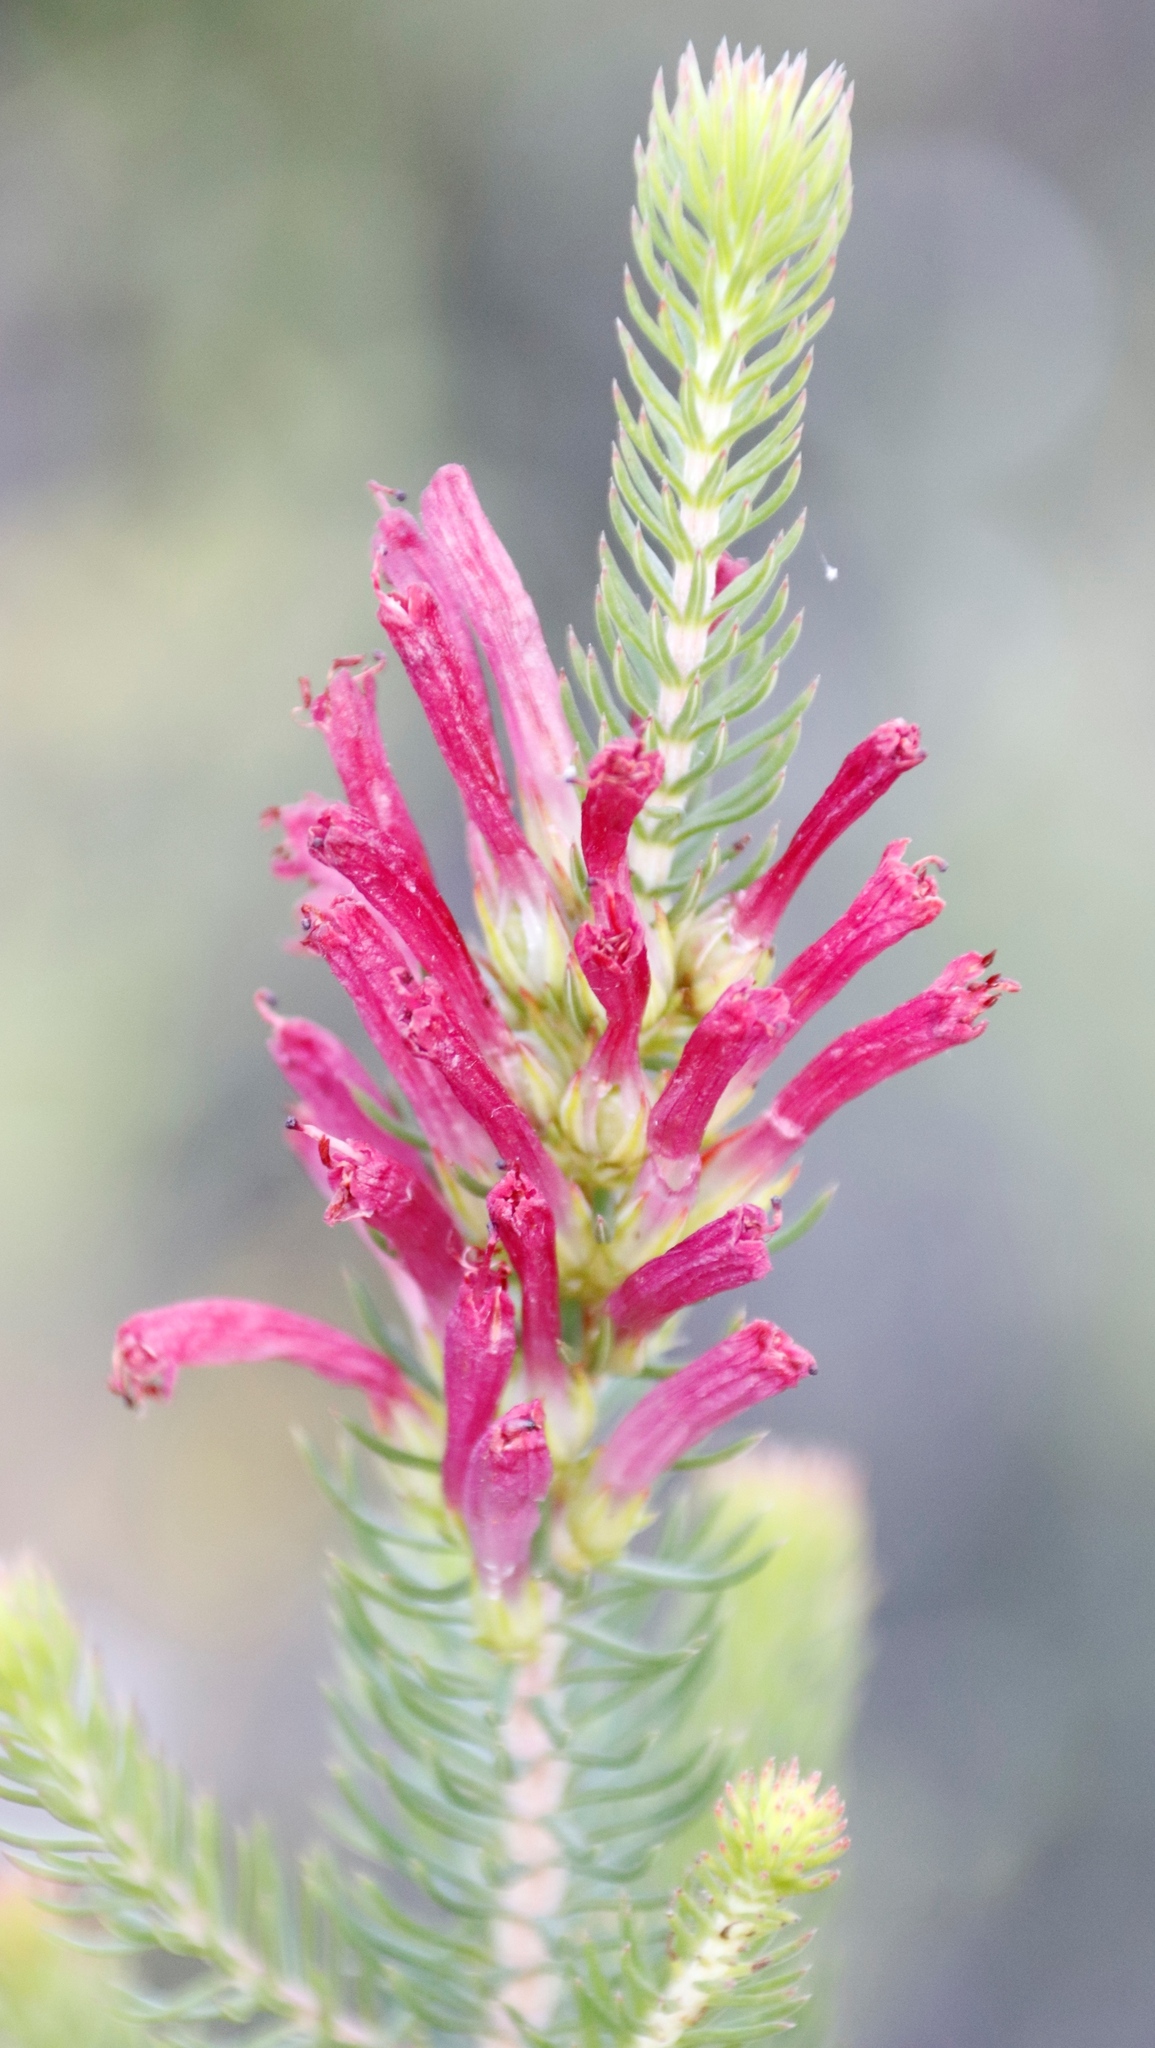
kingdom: Plantae
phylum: Tracheophyta
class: Magnoliopsida
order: Ericales
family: Ericaceae
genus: Erica
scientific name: Erica abietina
